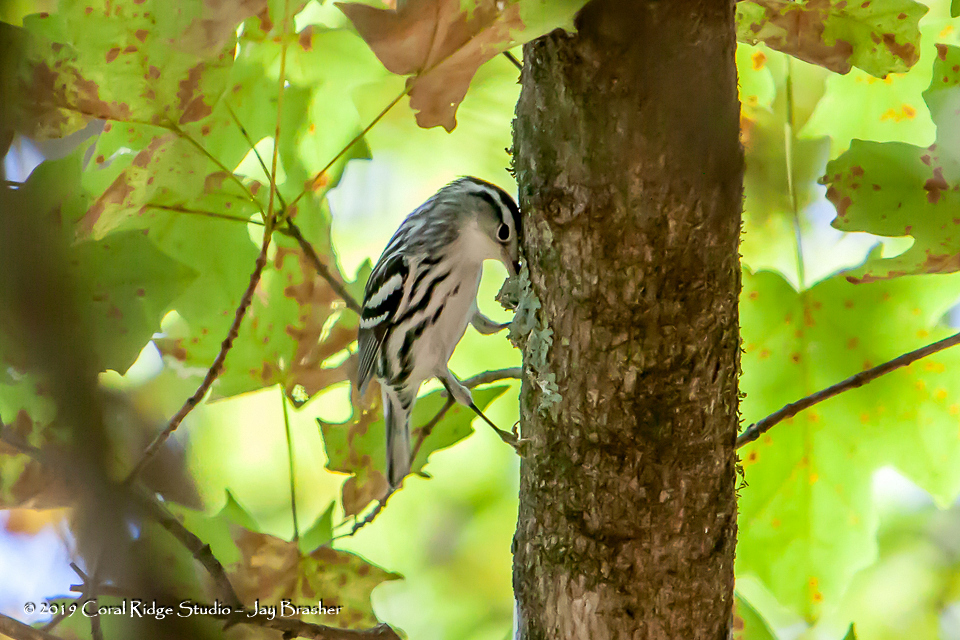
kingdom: Animalia
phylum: Chordata
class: Aves
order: Passeriformes
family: Parulidae
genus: Mniotilta
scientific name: Mniotilta varia
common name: Black-and-white warbler
